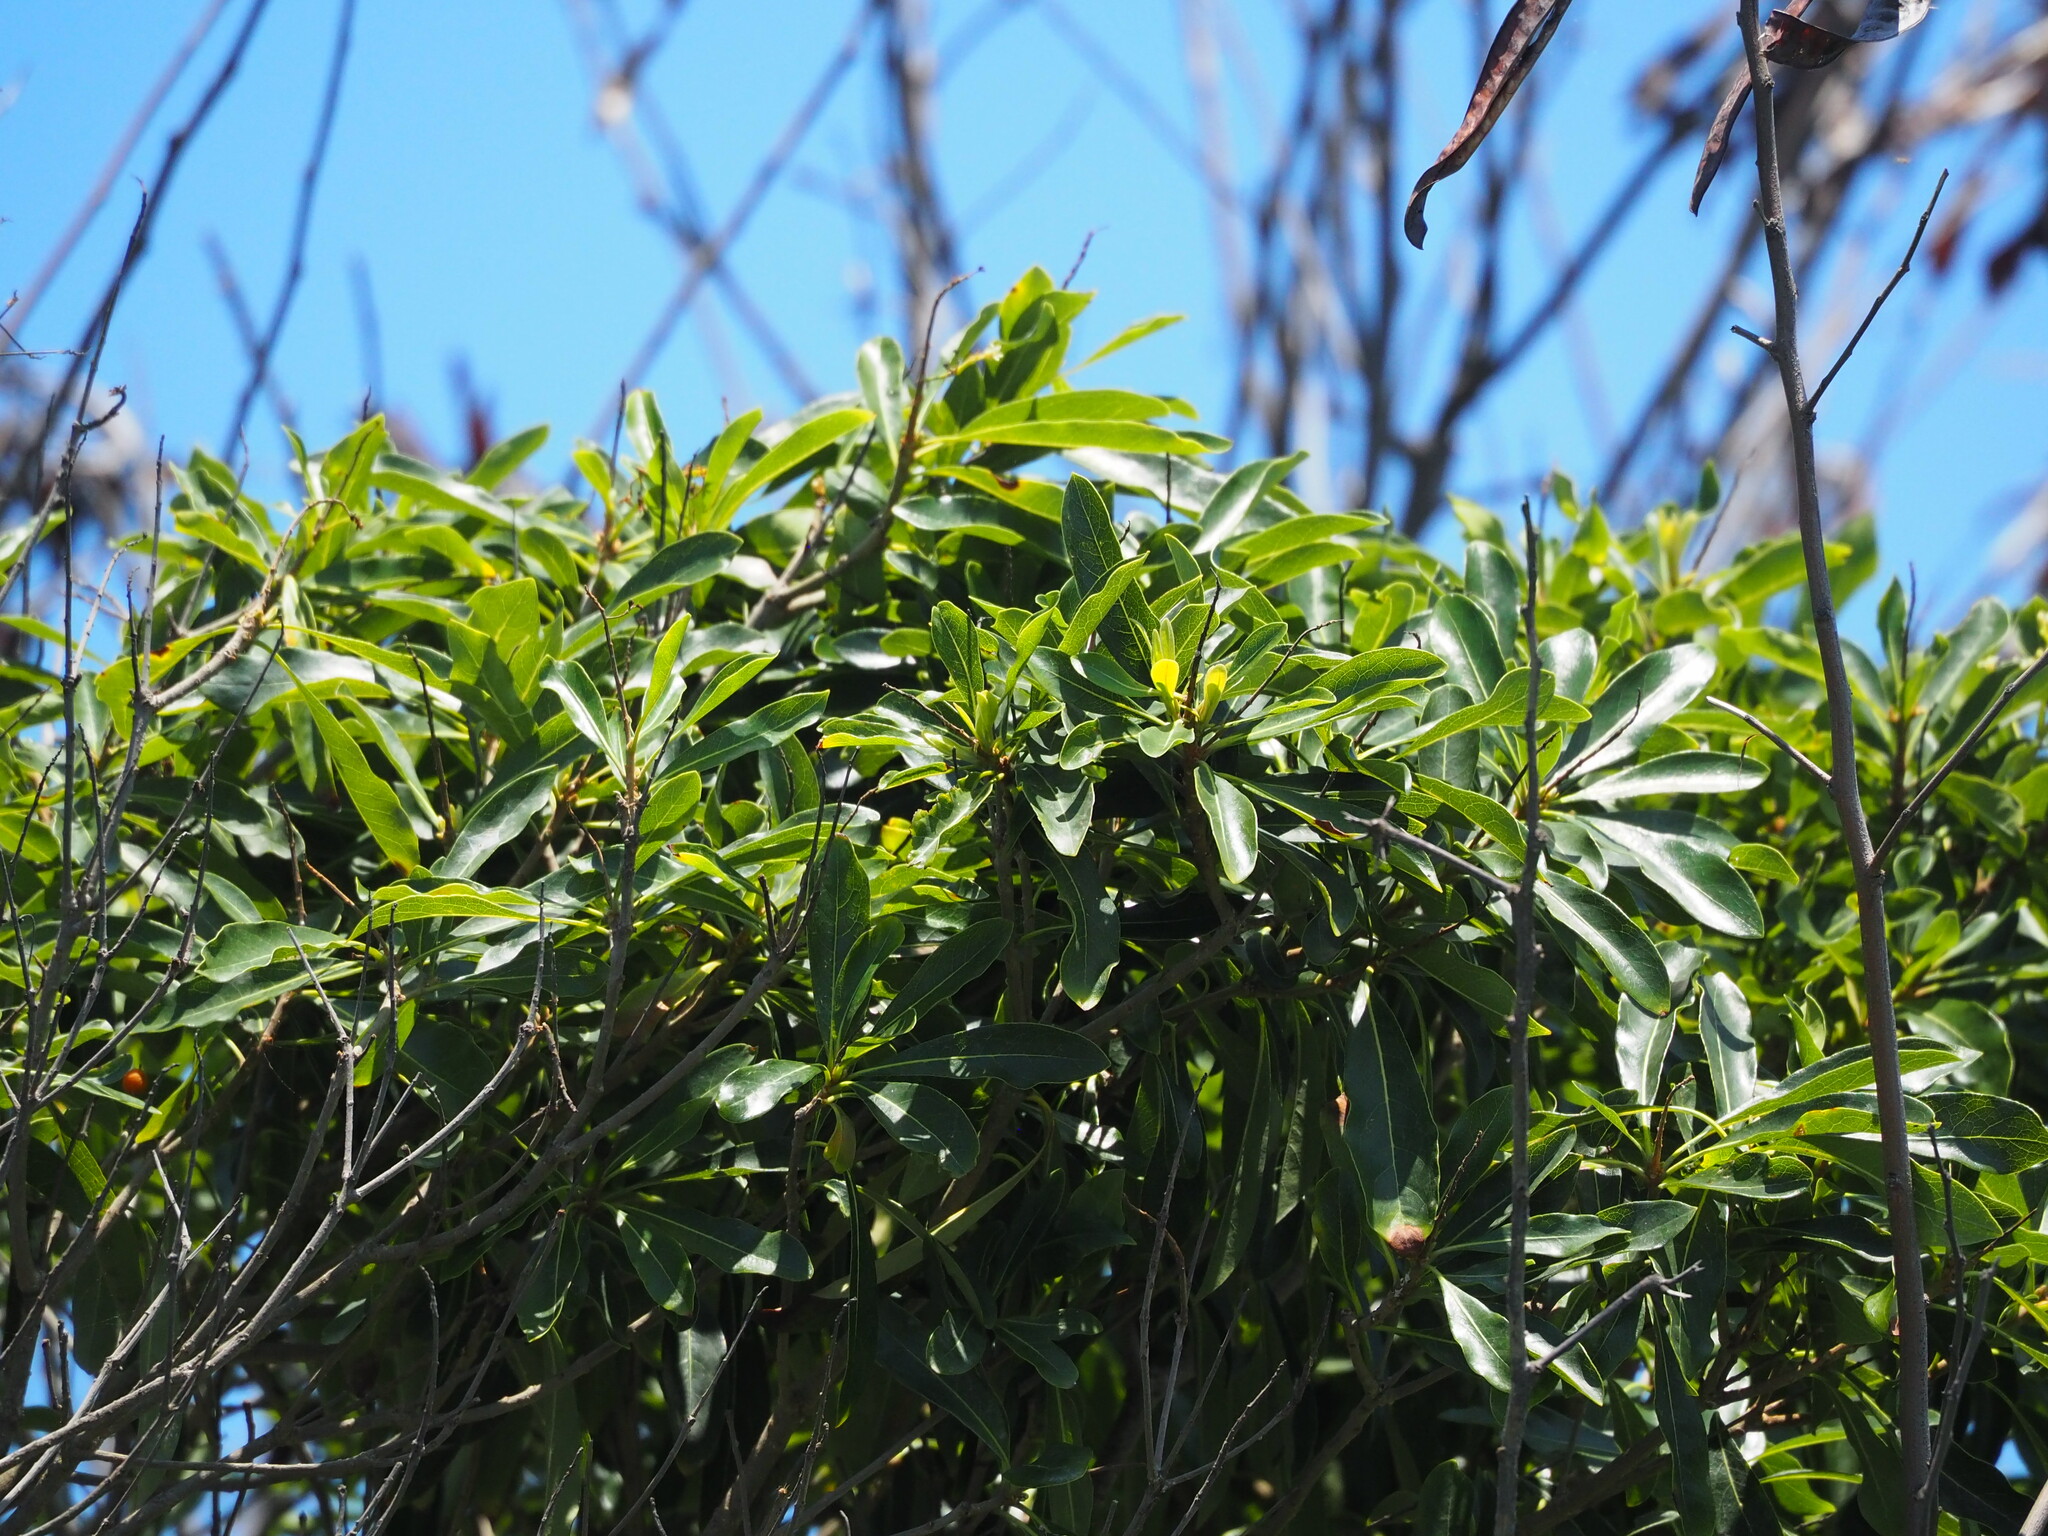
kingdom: Plantae
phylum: Tracheophyta
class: Magnoliopsida
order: Apiales
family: Pittosporaceae
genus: Pittosporum
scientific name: Pittosporum pentandrum
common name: Taiwanese cheesewood
